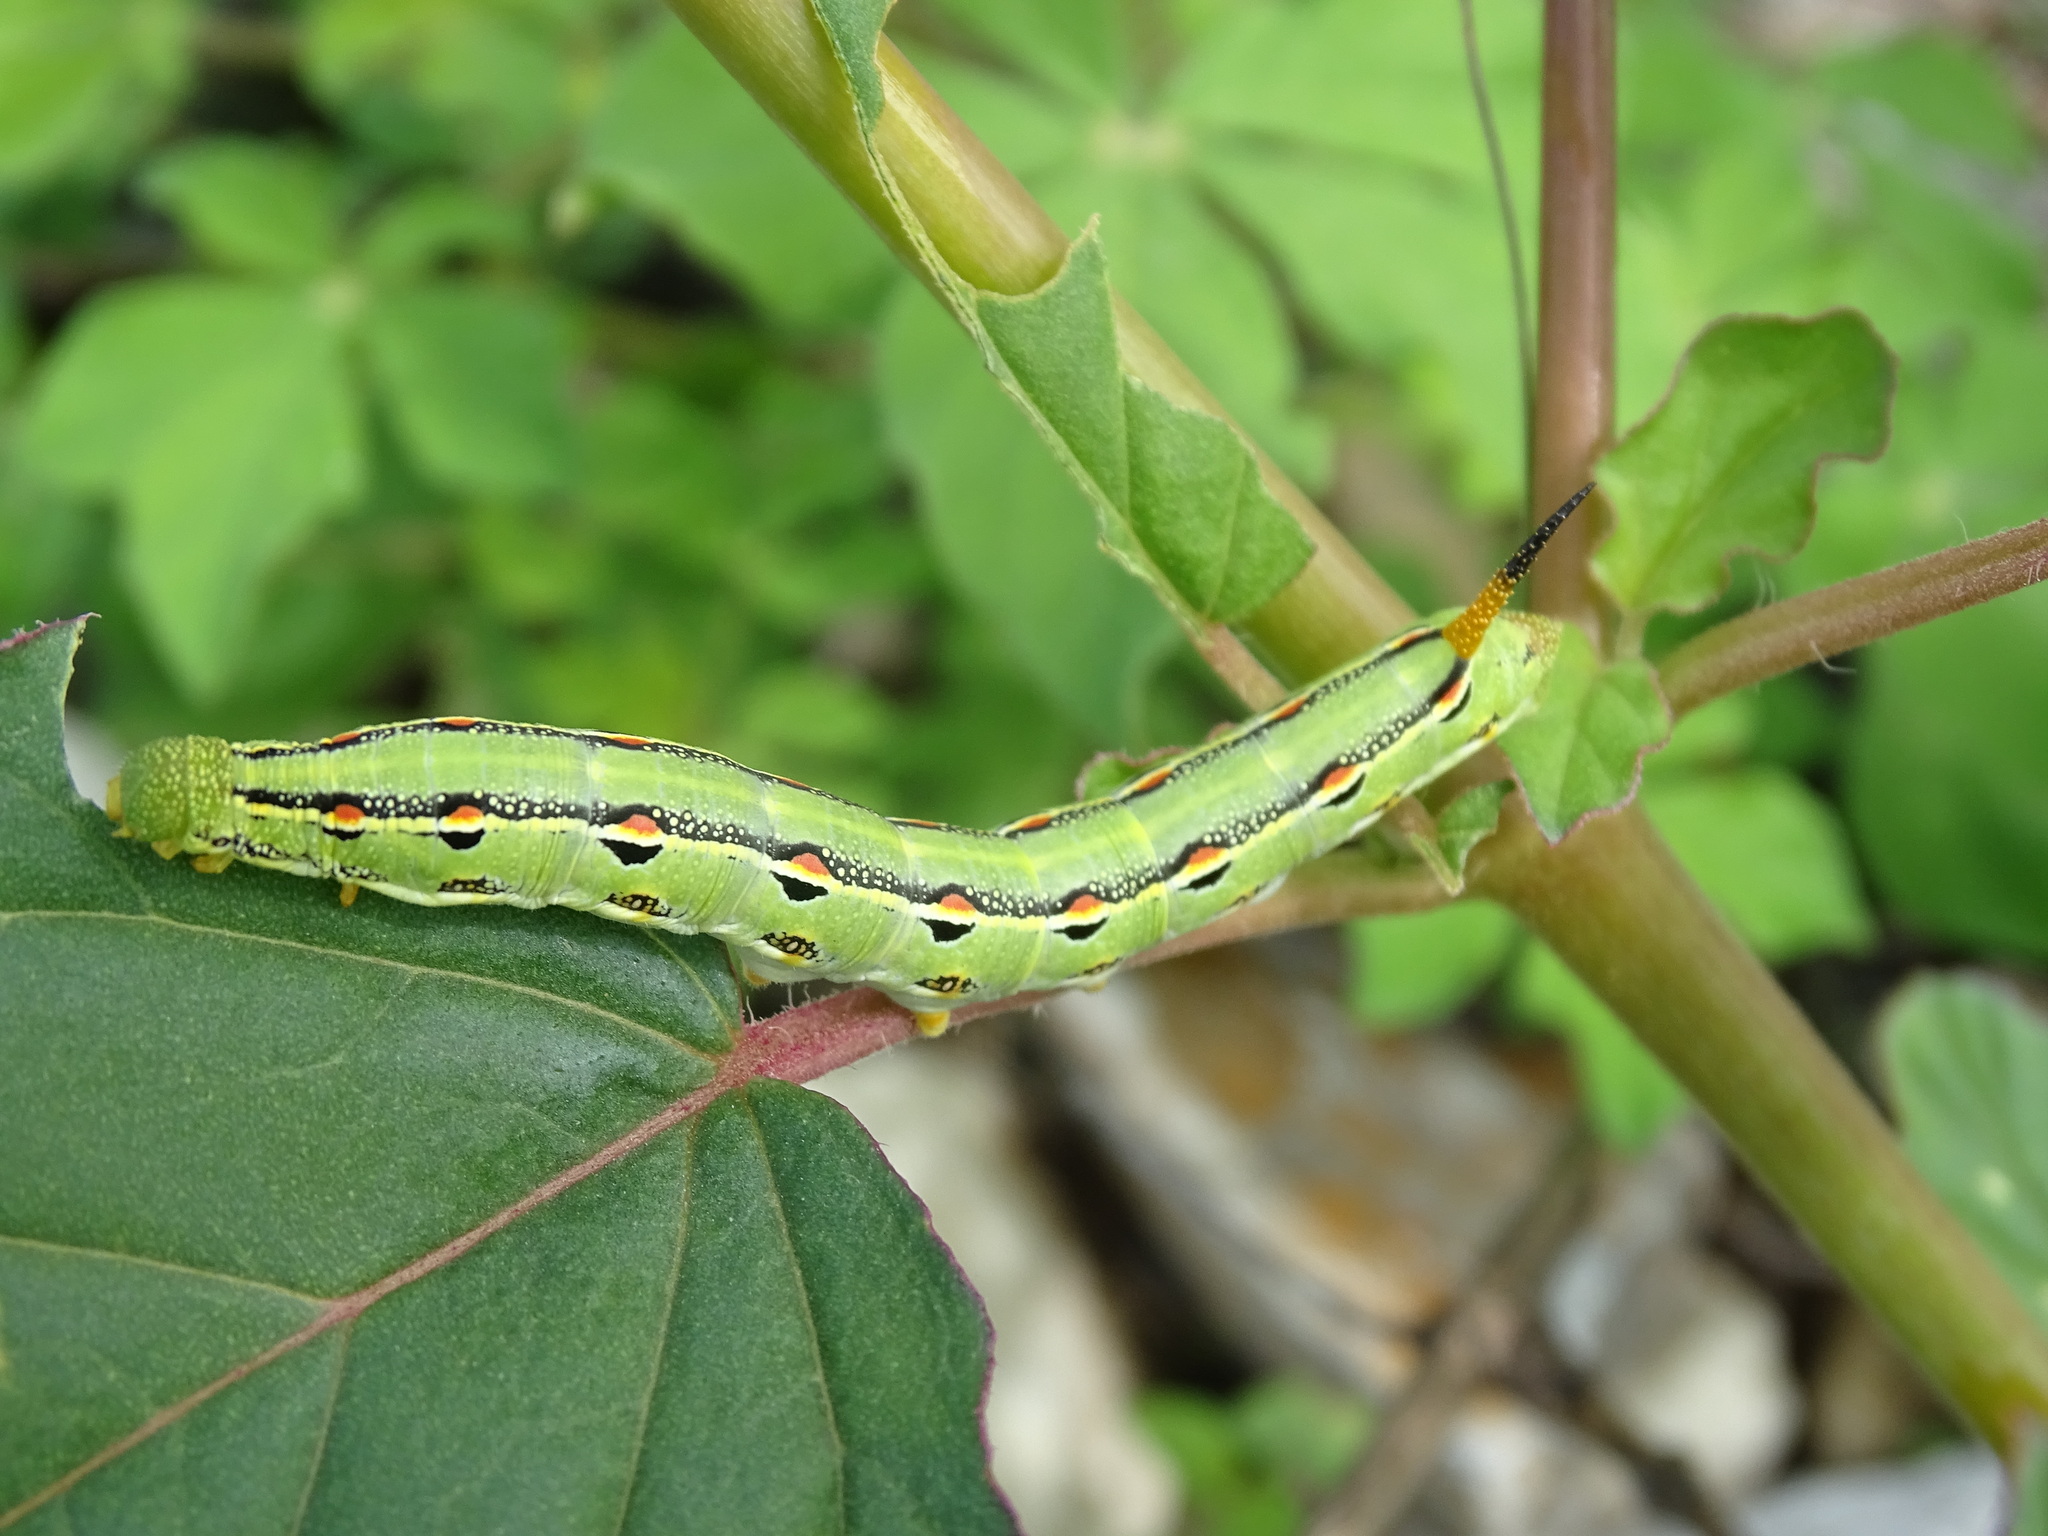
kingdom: Animalia
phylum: Arthropoda
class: Insecta
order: Lepidoptera
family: Sphingidae
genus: Hyles
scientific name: Hyles lineata
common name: White-lined sphinx
